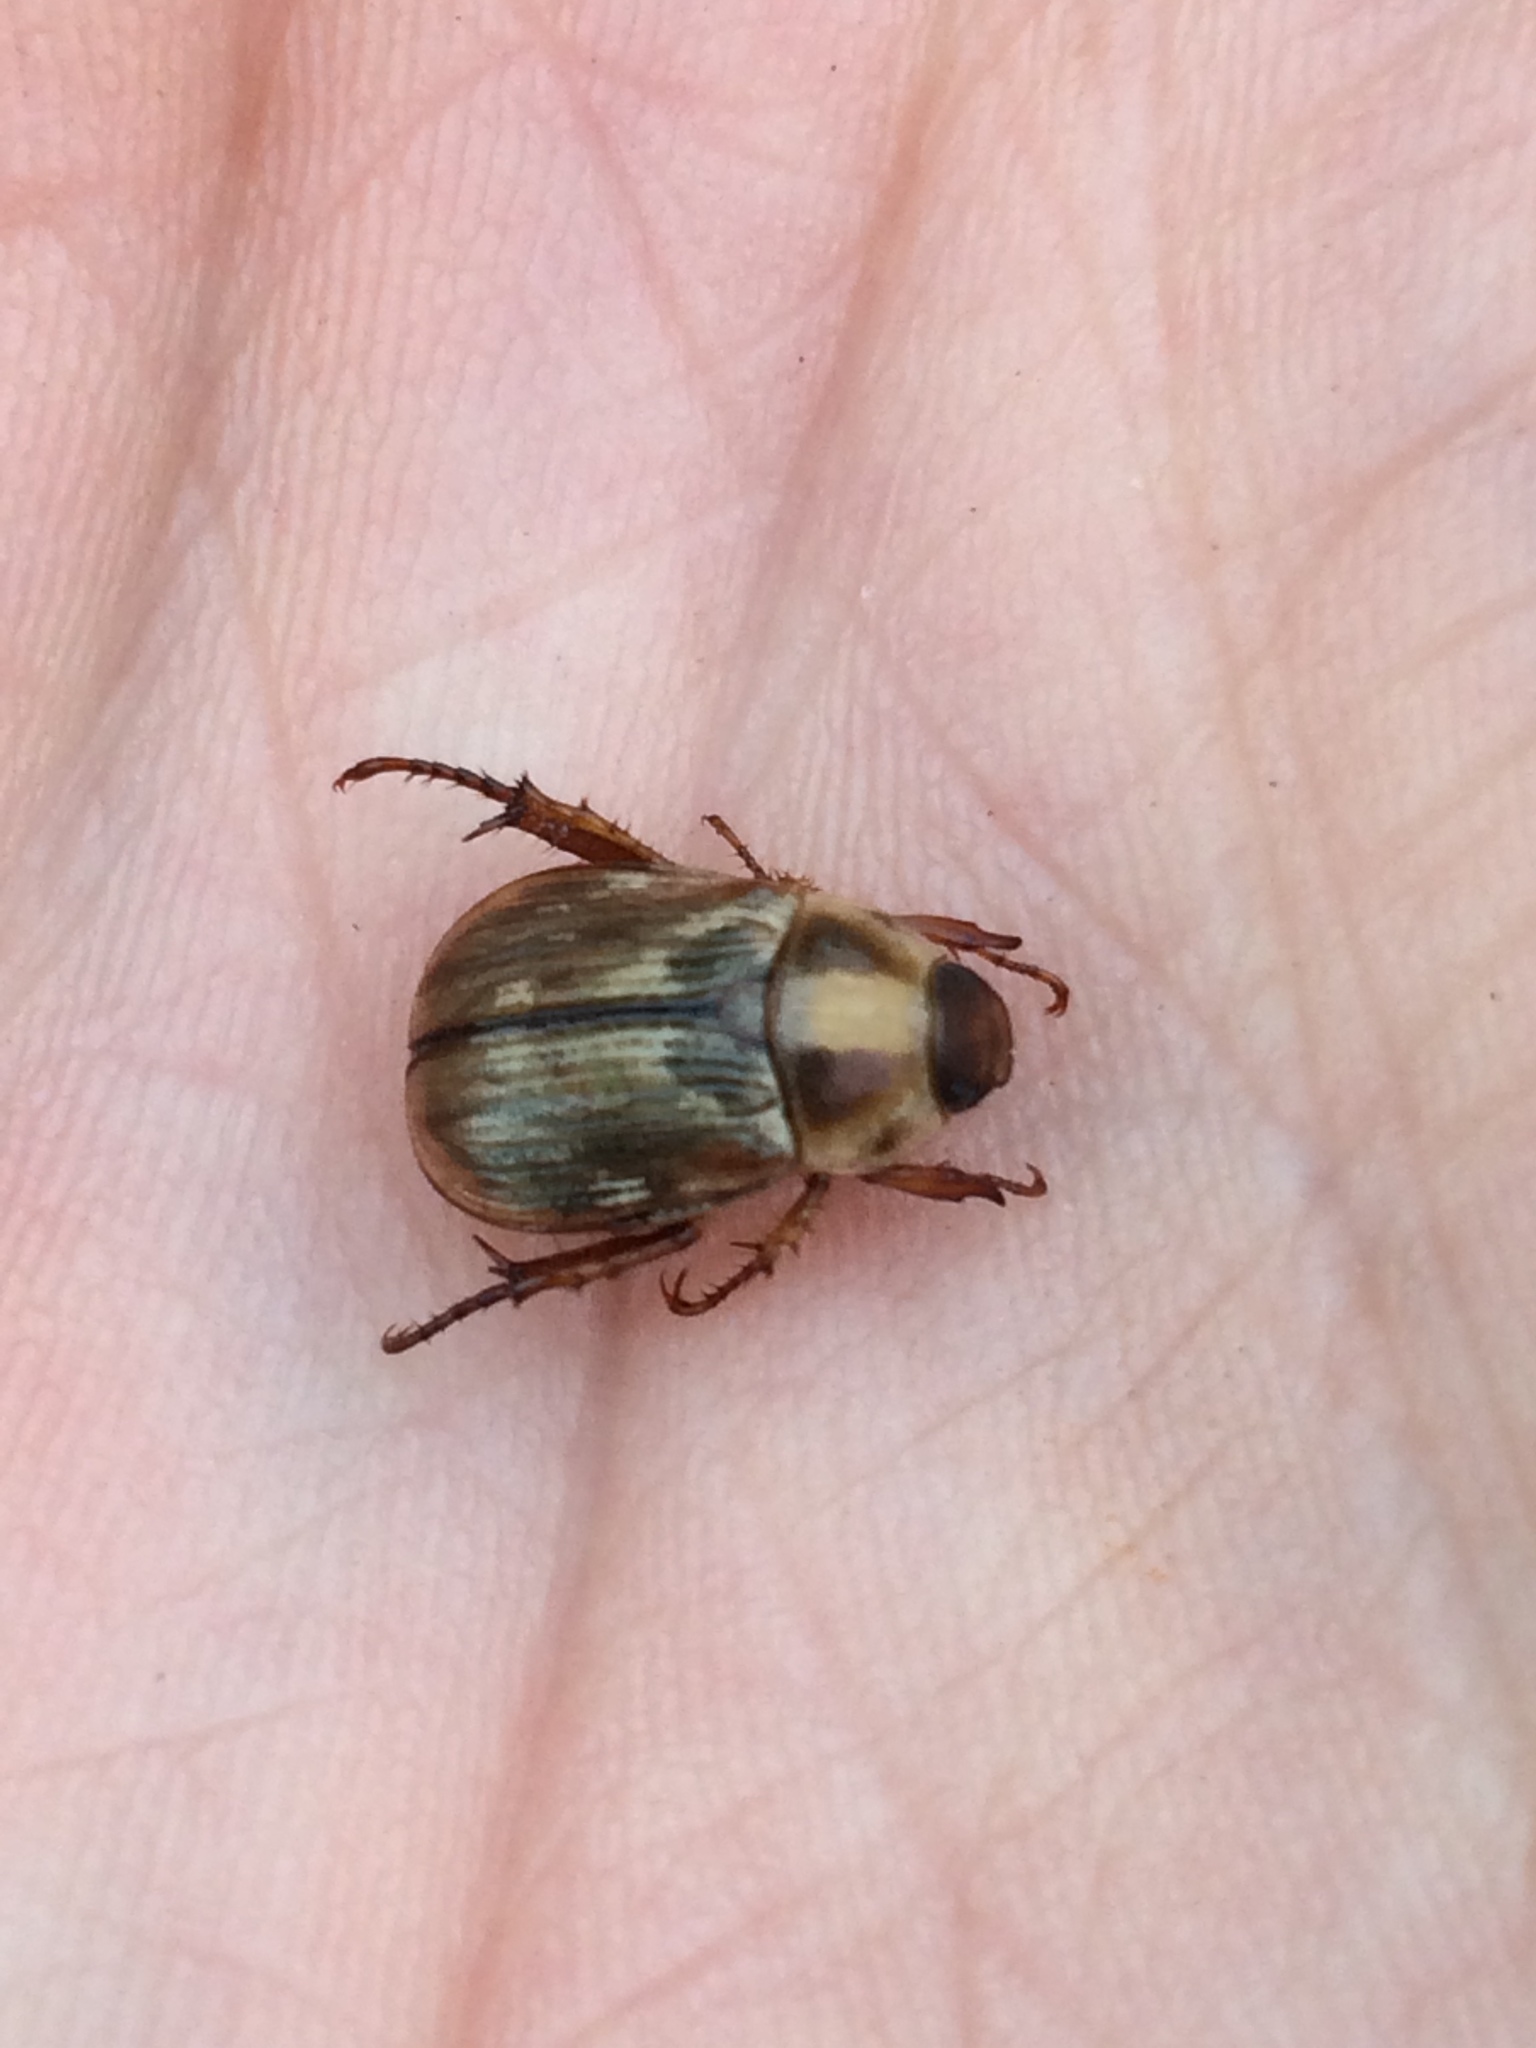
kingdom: Animalia
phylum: Arthropoda
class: Insecta
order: Coleoptera
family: Scarabaeidae
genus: Exomala
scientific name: Exomala orientalis
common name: Oriental beetle
